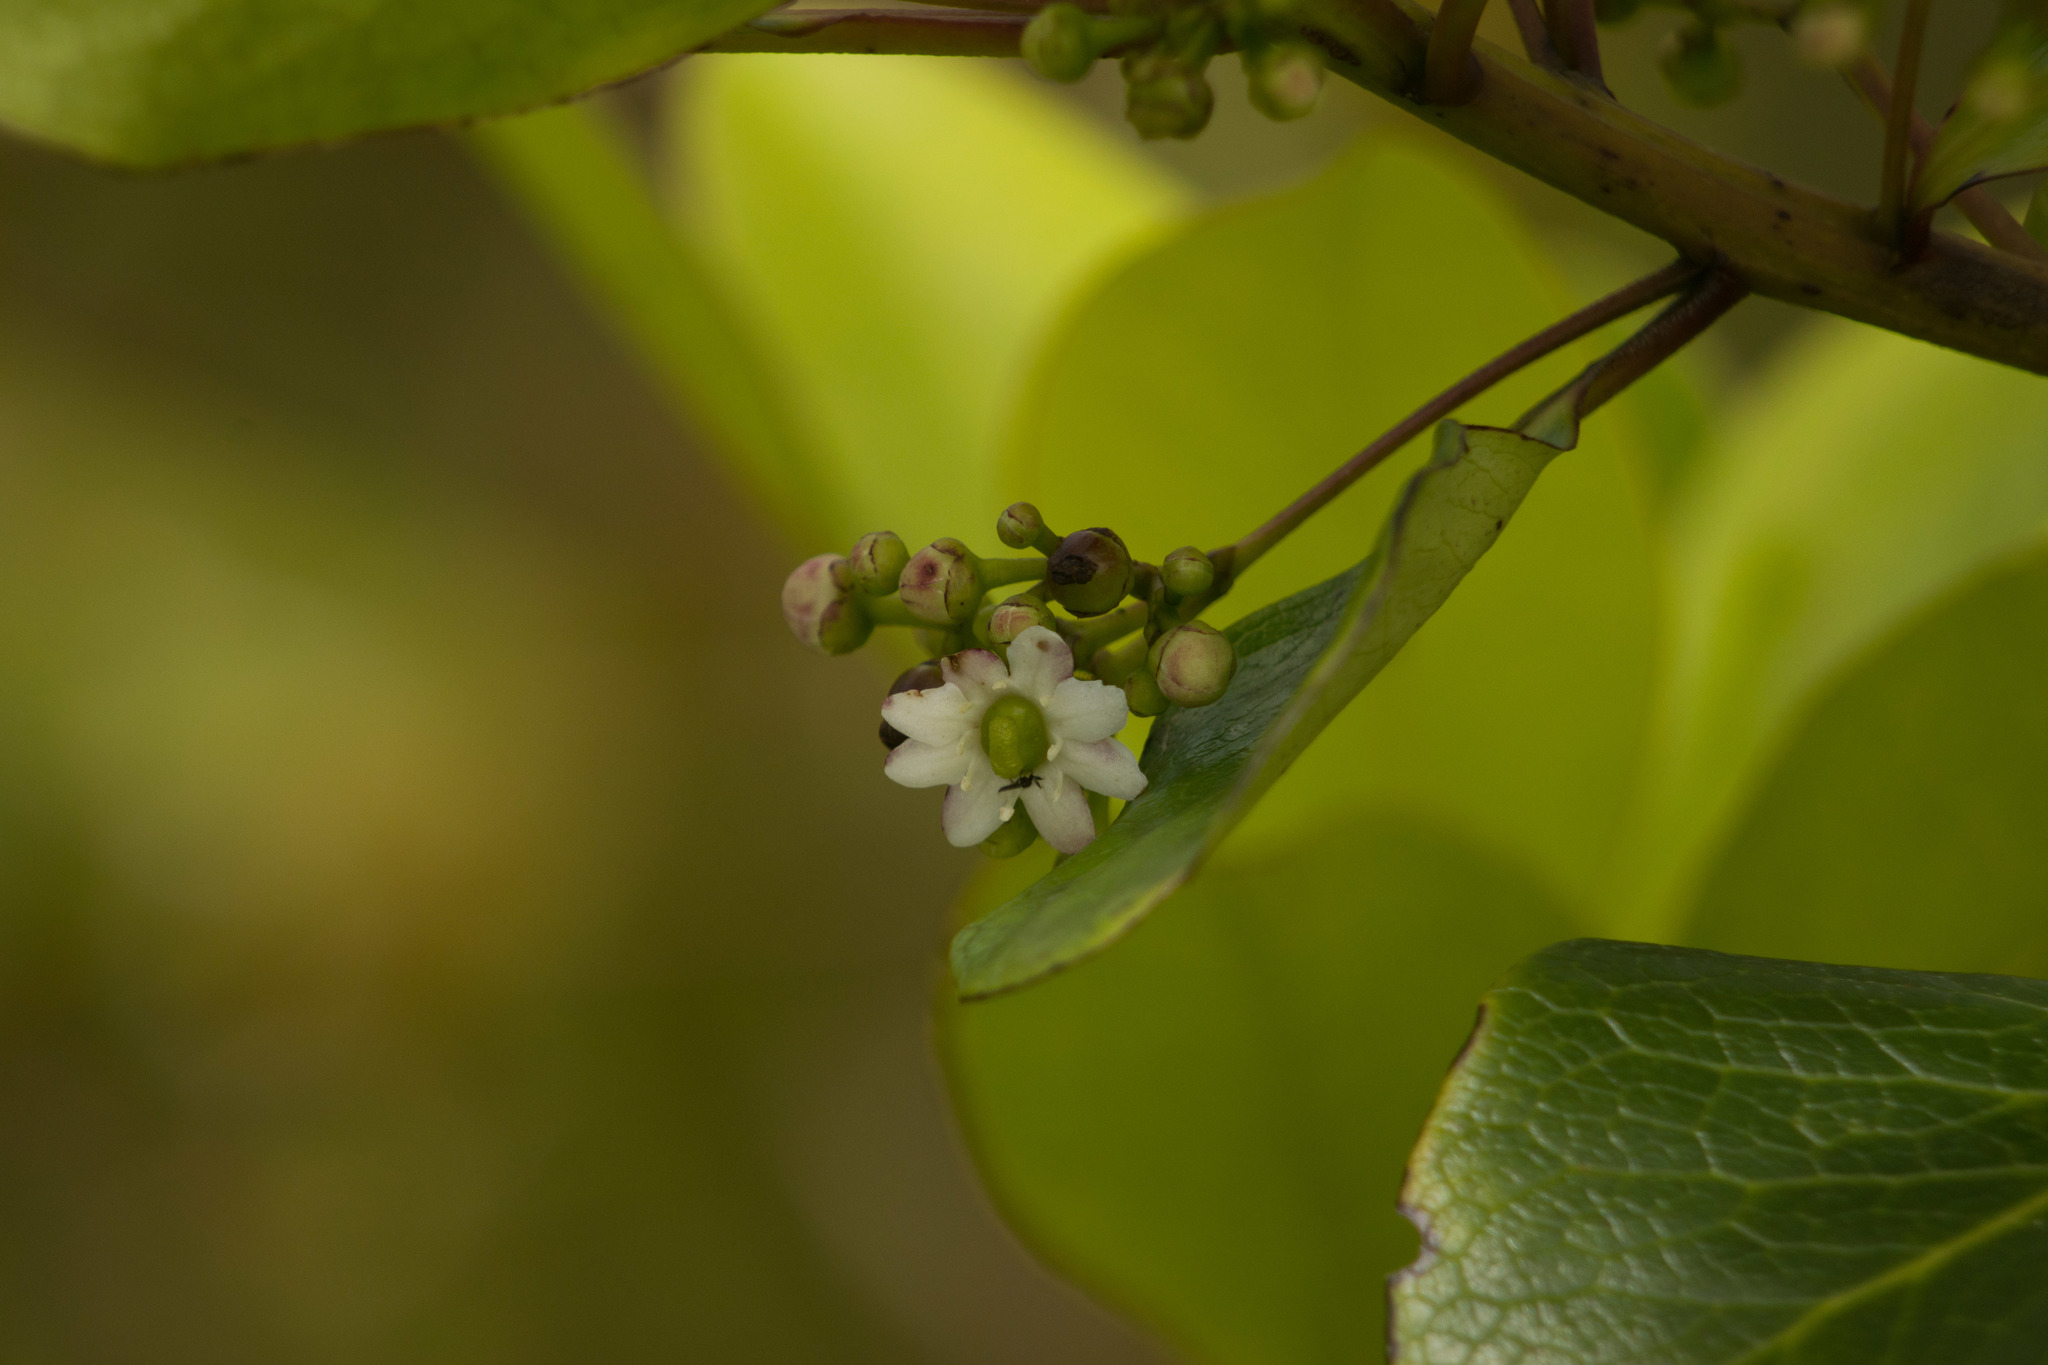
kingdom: Plantae
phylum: Tracheophyta
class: Magnoliopsida
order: Aquifoliales
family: Aquifoliaceae
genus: Ilex
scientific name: Ilex anomala
